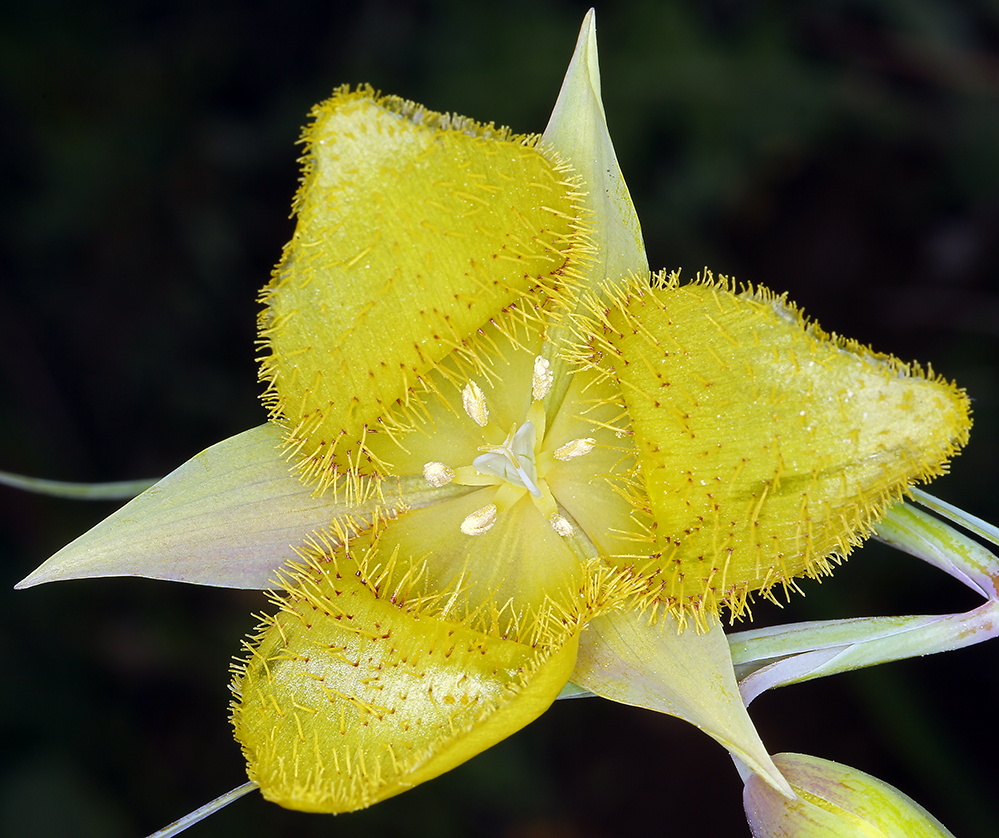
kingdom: Plantae
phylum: Tracheophyta
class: Liliopsida
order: Liliales
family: Liliaceae
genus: Calochortus
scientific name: Calochortus pulchellus
